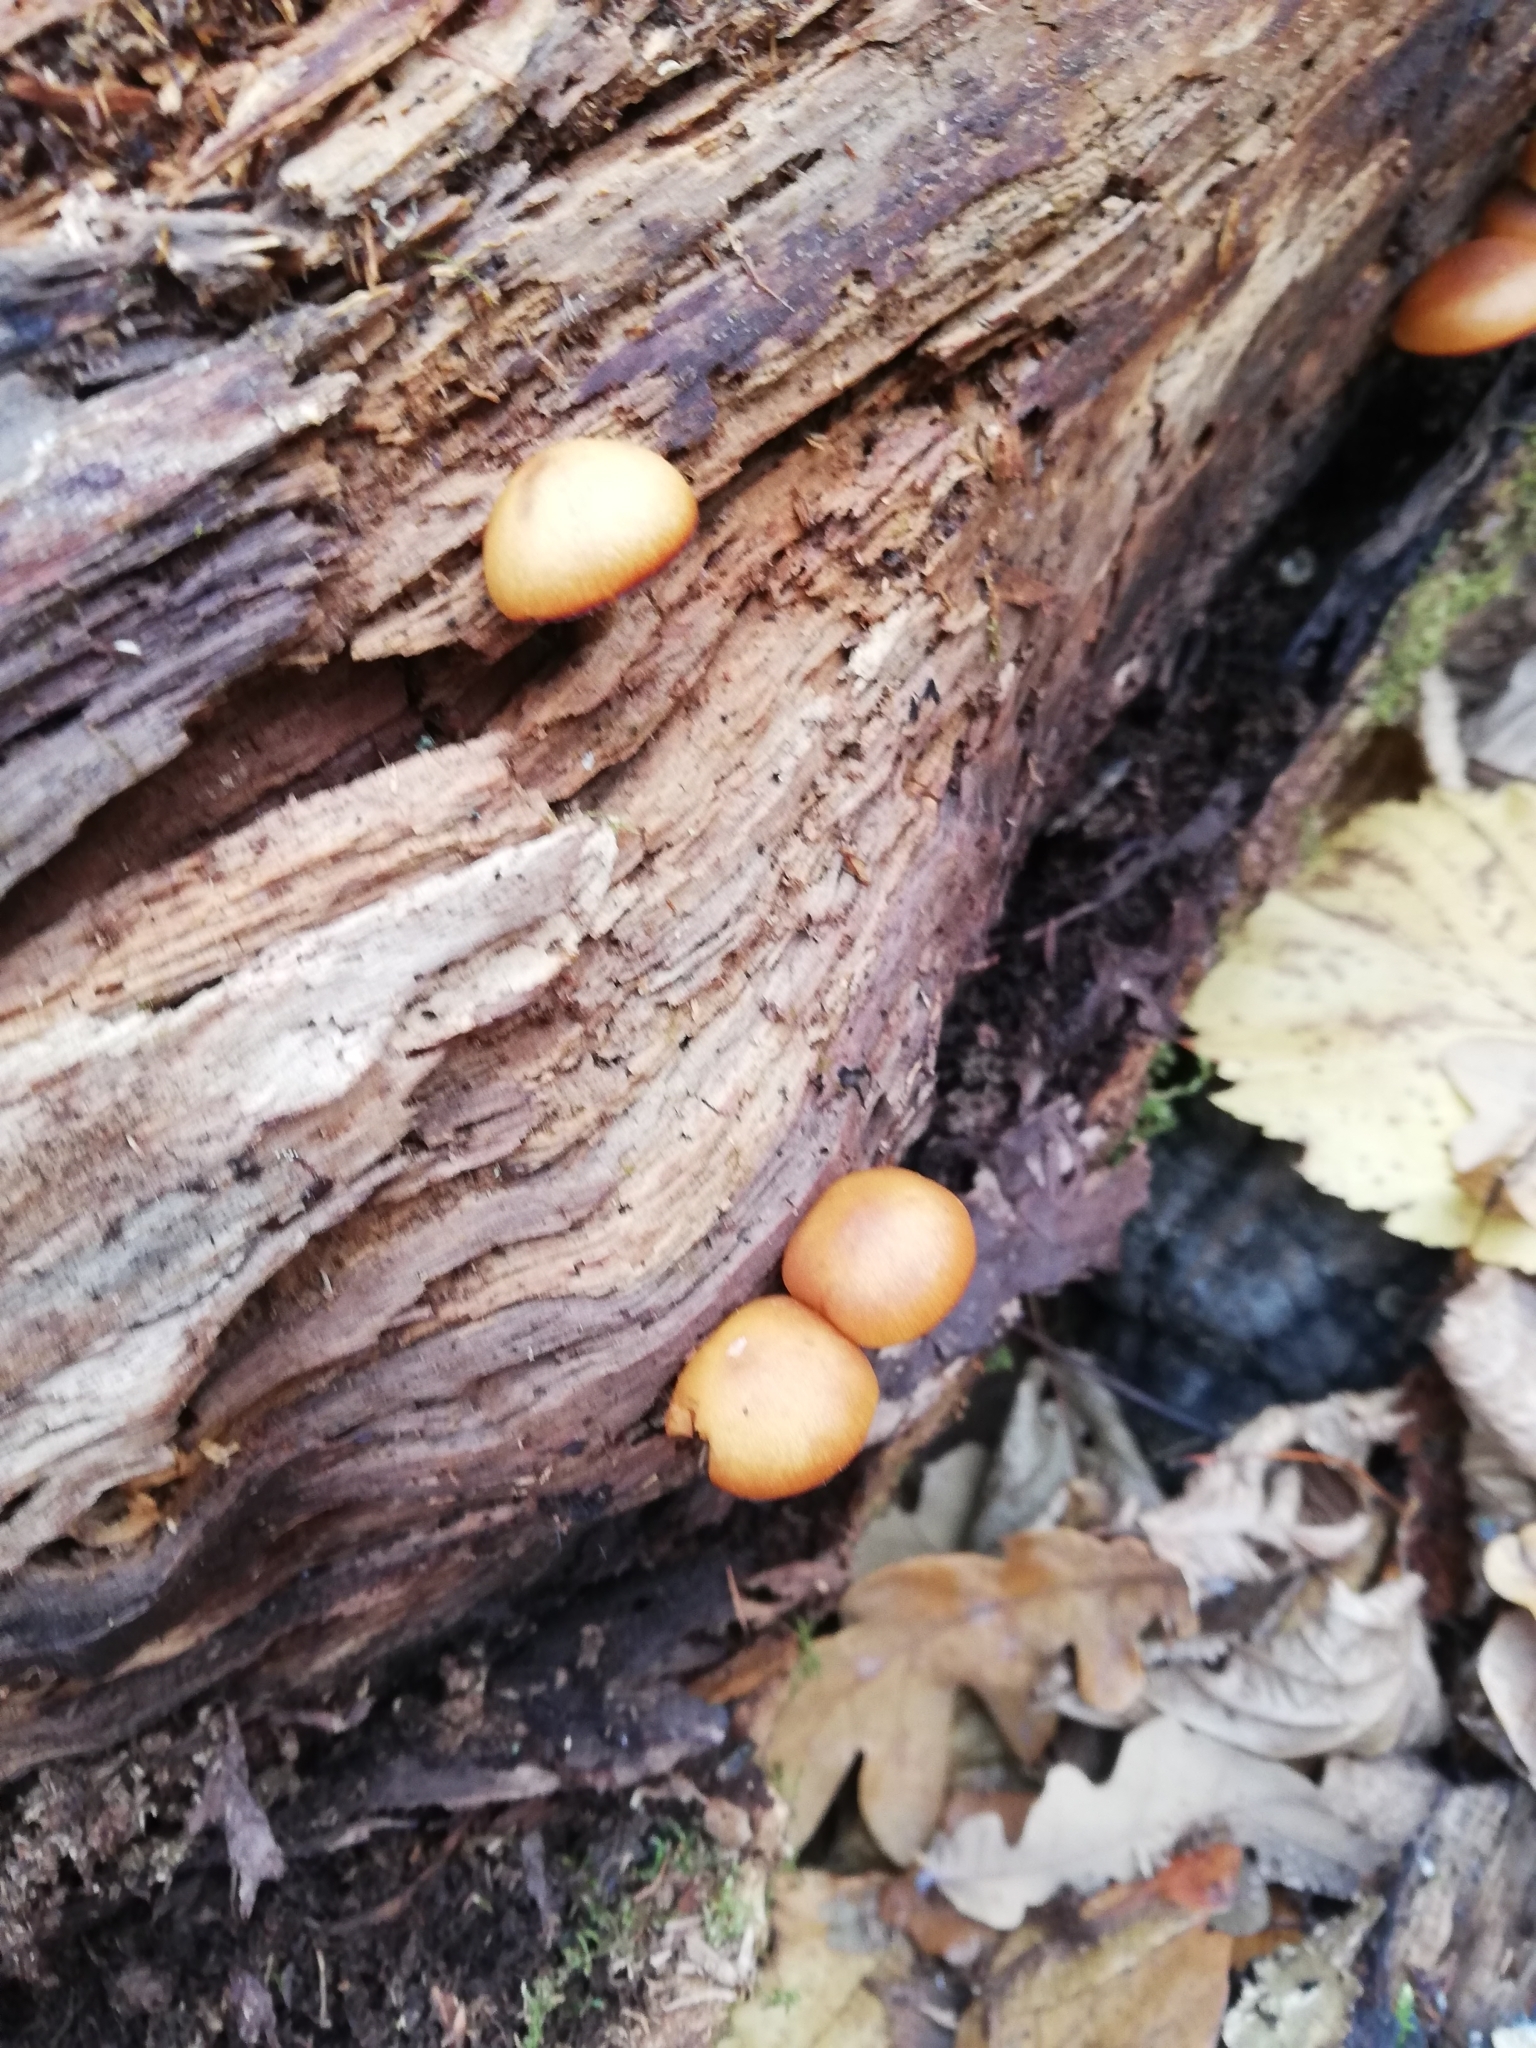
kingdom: Fungi
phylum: Basidiomycota
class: Agaricomycetes
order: Agaricales
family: Hymenogastraceae
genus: Galerina
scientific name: Galerina marginata
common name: Funeral bell
